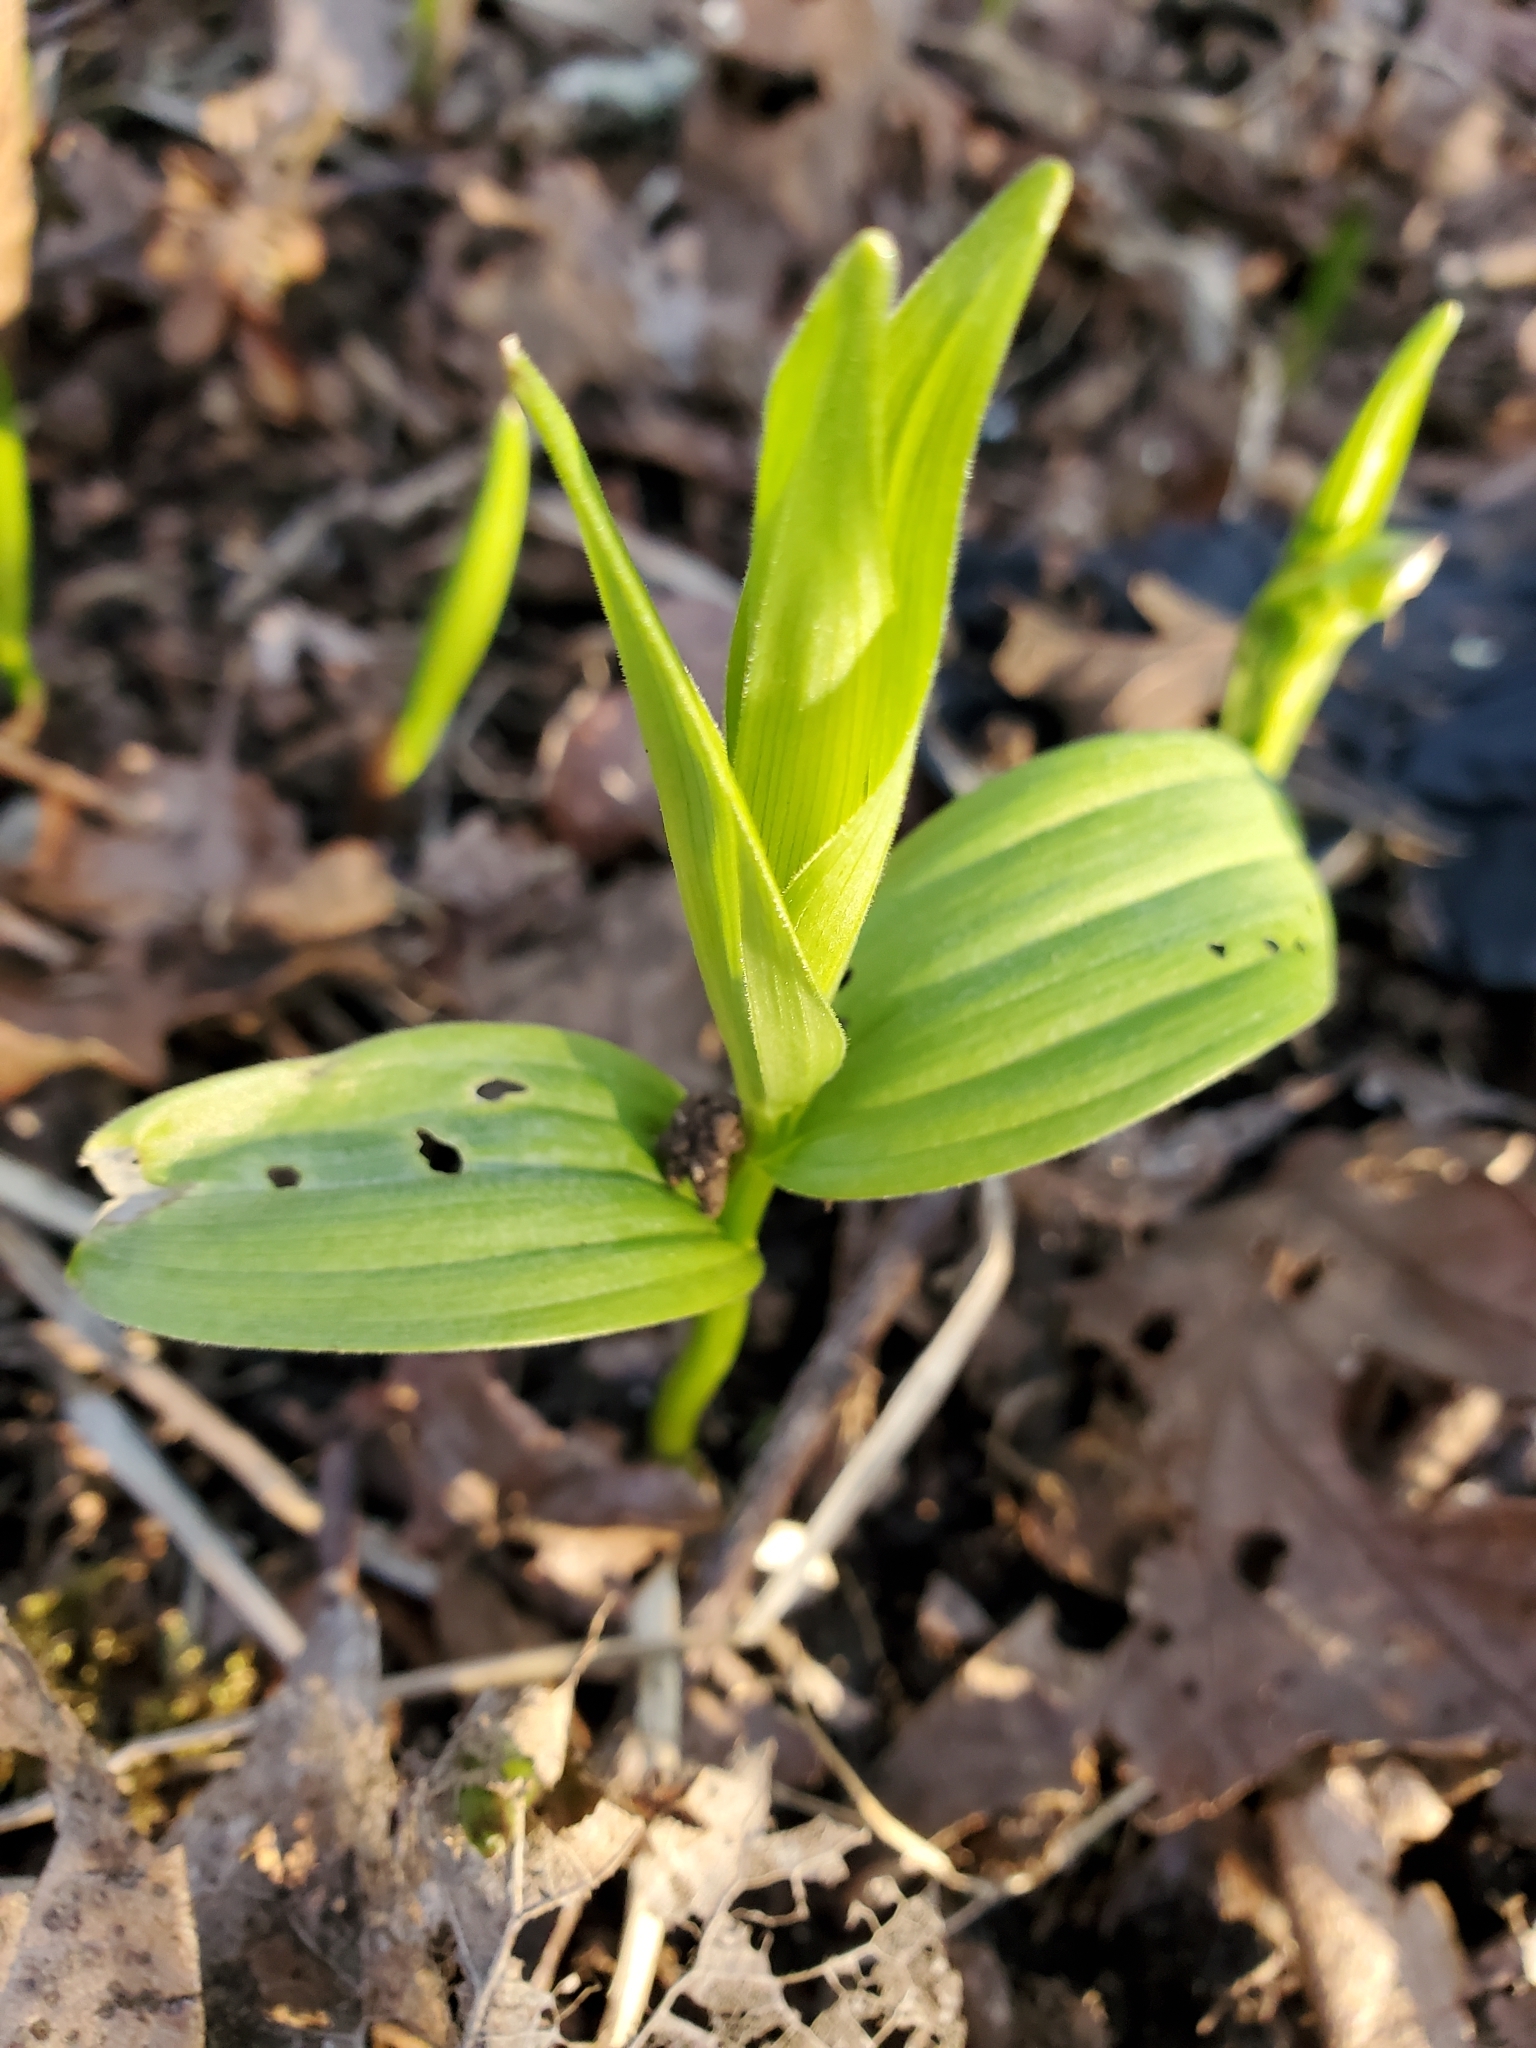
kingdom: Plantae
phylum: Tracheophyta
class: Liliopsida
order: Asparagales
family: Asparagaceae
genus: Maianthemum
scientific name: Maianthemum stellatum
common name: Little false solomon's seal
